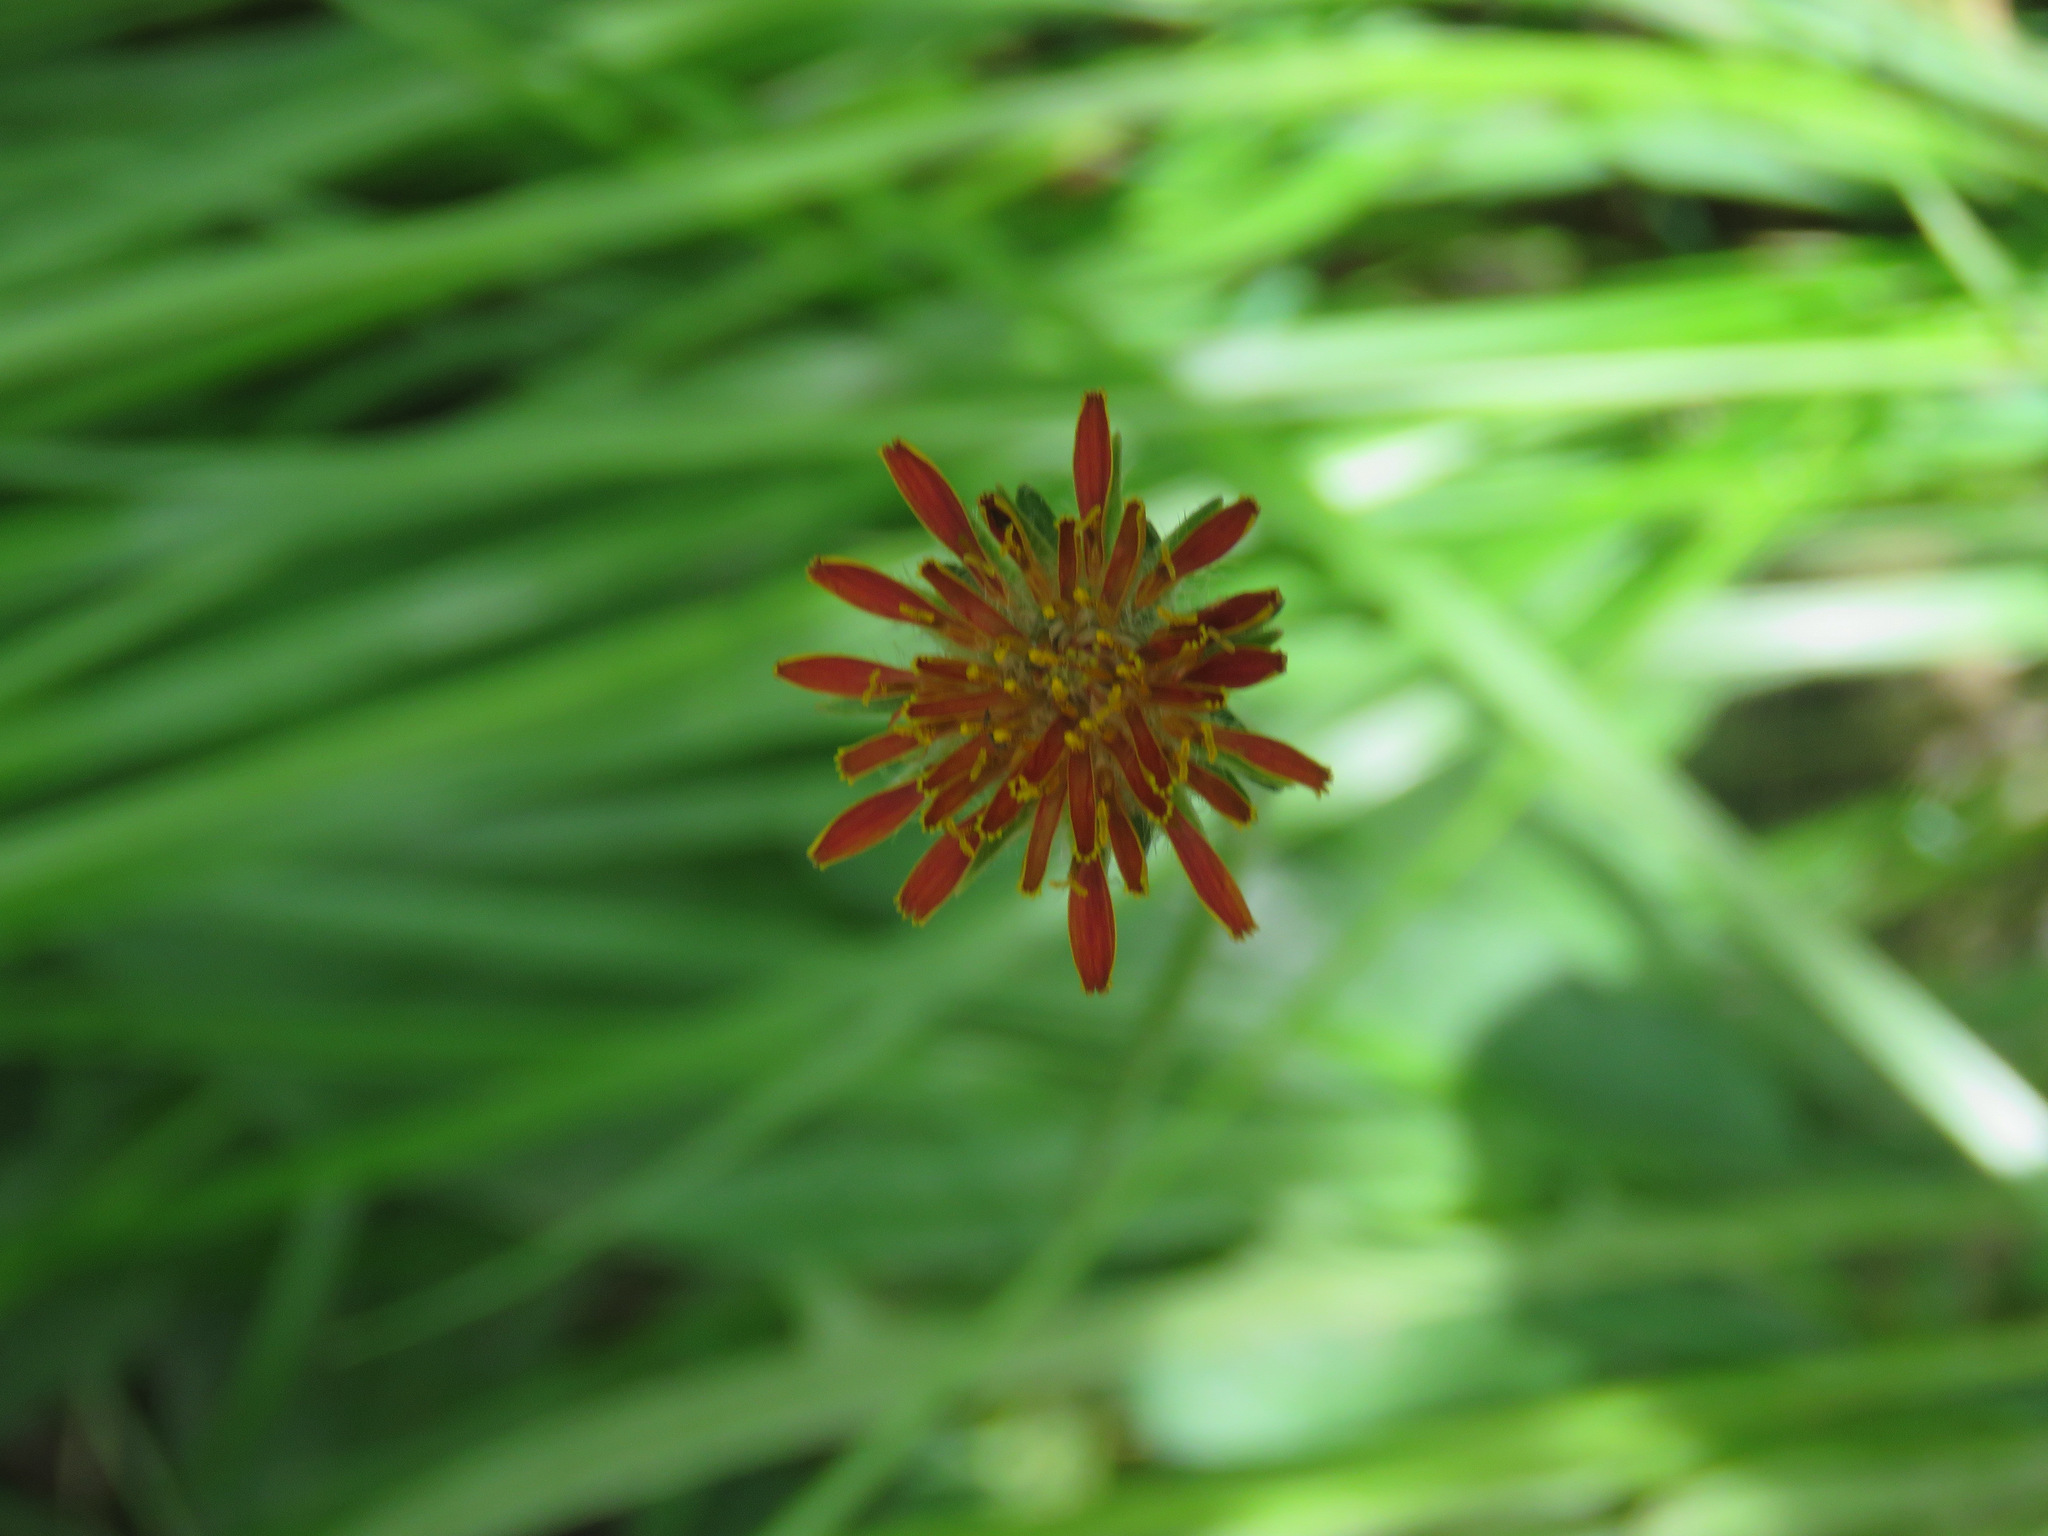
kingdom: Plantae
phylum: Tracheophyta
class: Magnoliopsida
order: Asterales
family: Asteraceae
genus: Pilosella
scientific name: Pilosella aurantiaca
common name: Fox-and-cubs
